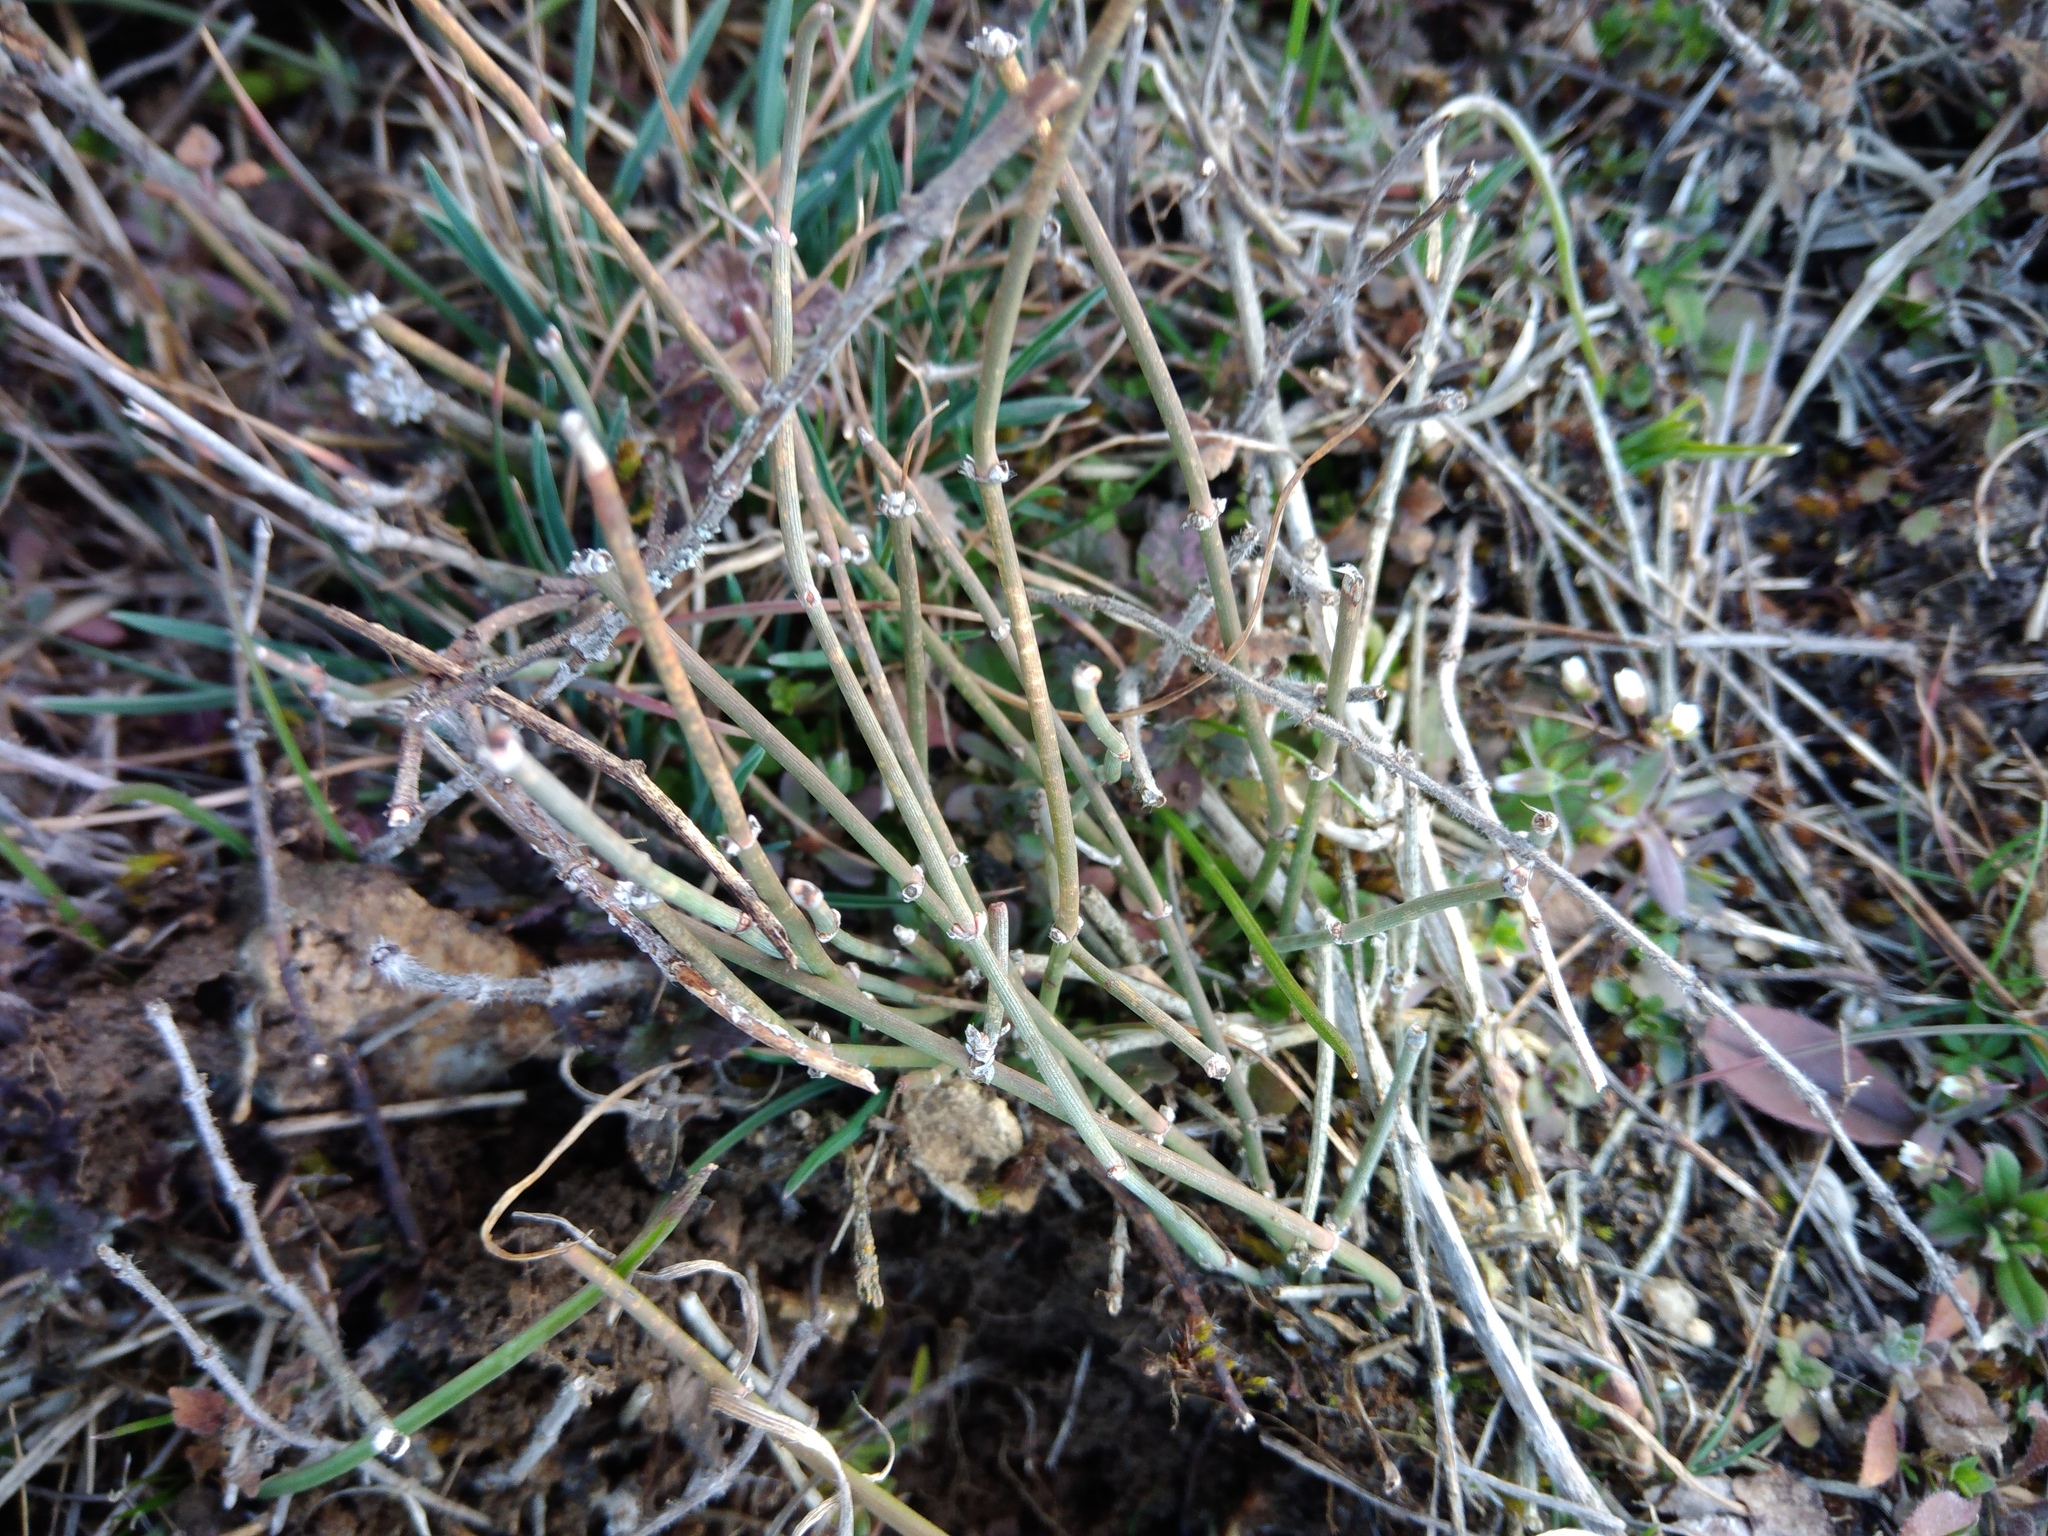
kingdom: Plantae
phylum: Tracheophyta
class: Gnetopsida
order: Ephedrales
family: Ephedraceae
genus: Ephedra
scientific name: Ephedra distachya
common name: Sea grape
